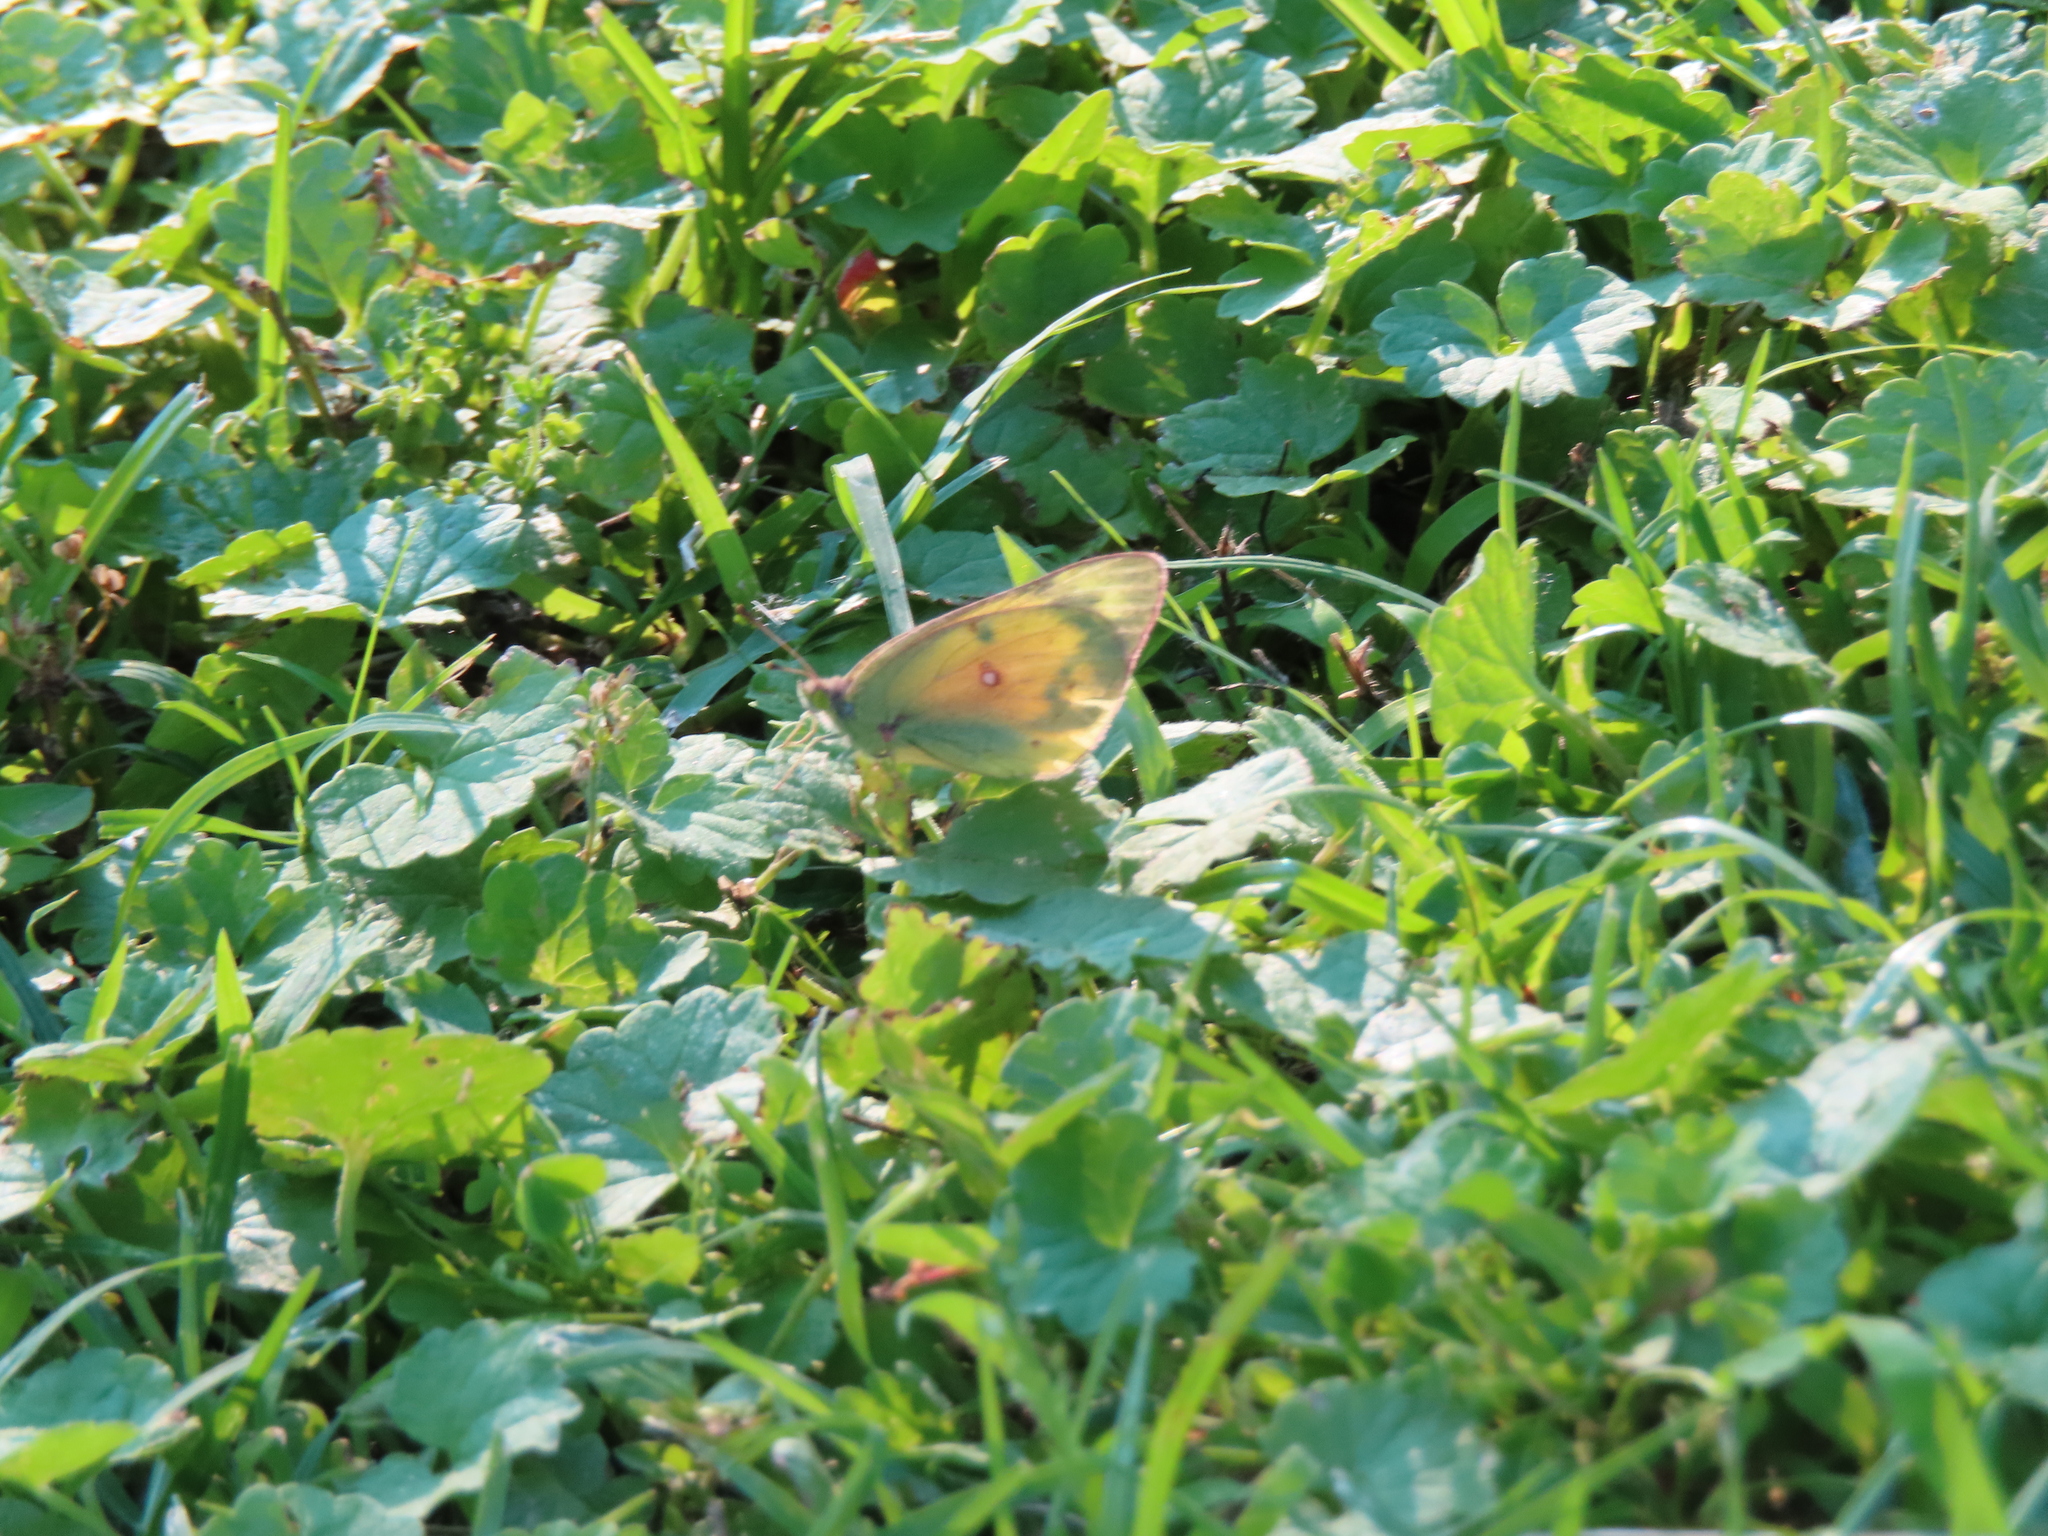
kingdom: Plantae
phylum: Tracheophyta
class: Magnoliopsida
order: Lamiales
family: Lamiaceae
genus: Glechoma
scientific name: Glechoma hederacea
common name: Ground ivy
